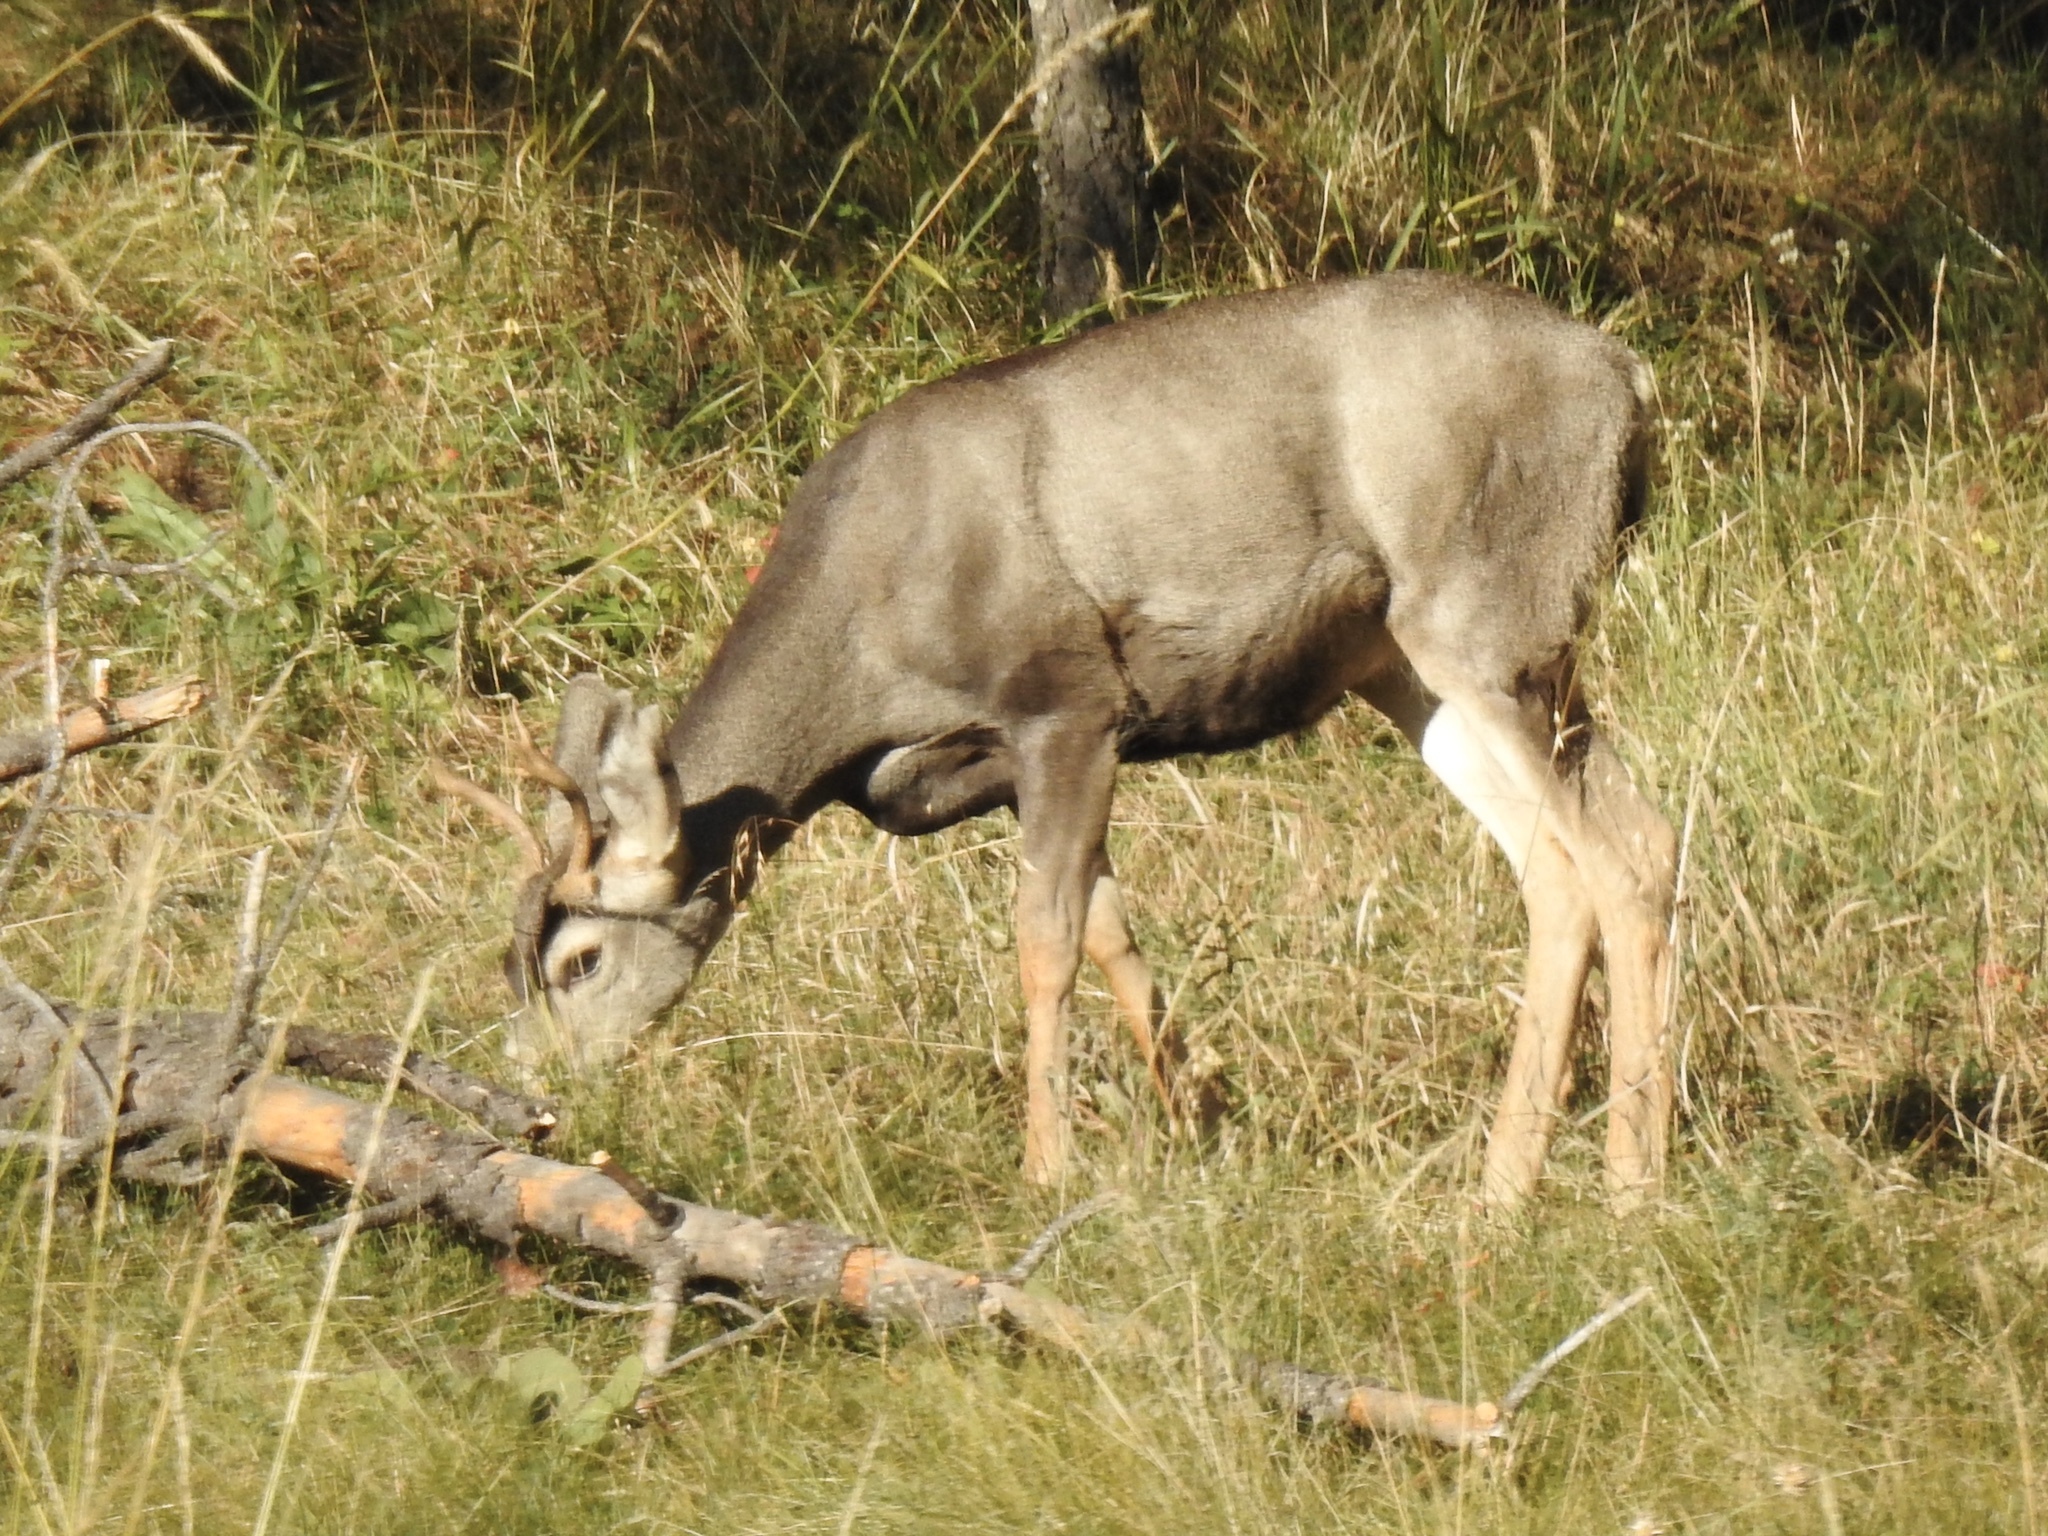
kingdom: Animalia
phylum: Chordata
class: Mammalia
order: Artiodactyla
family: Cervidae
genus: Odocoileus
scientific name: Odocoileus hemionus
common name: Mule deer
